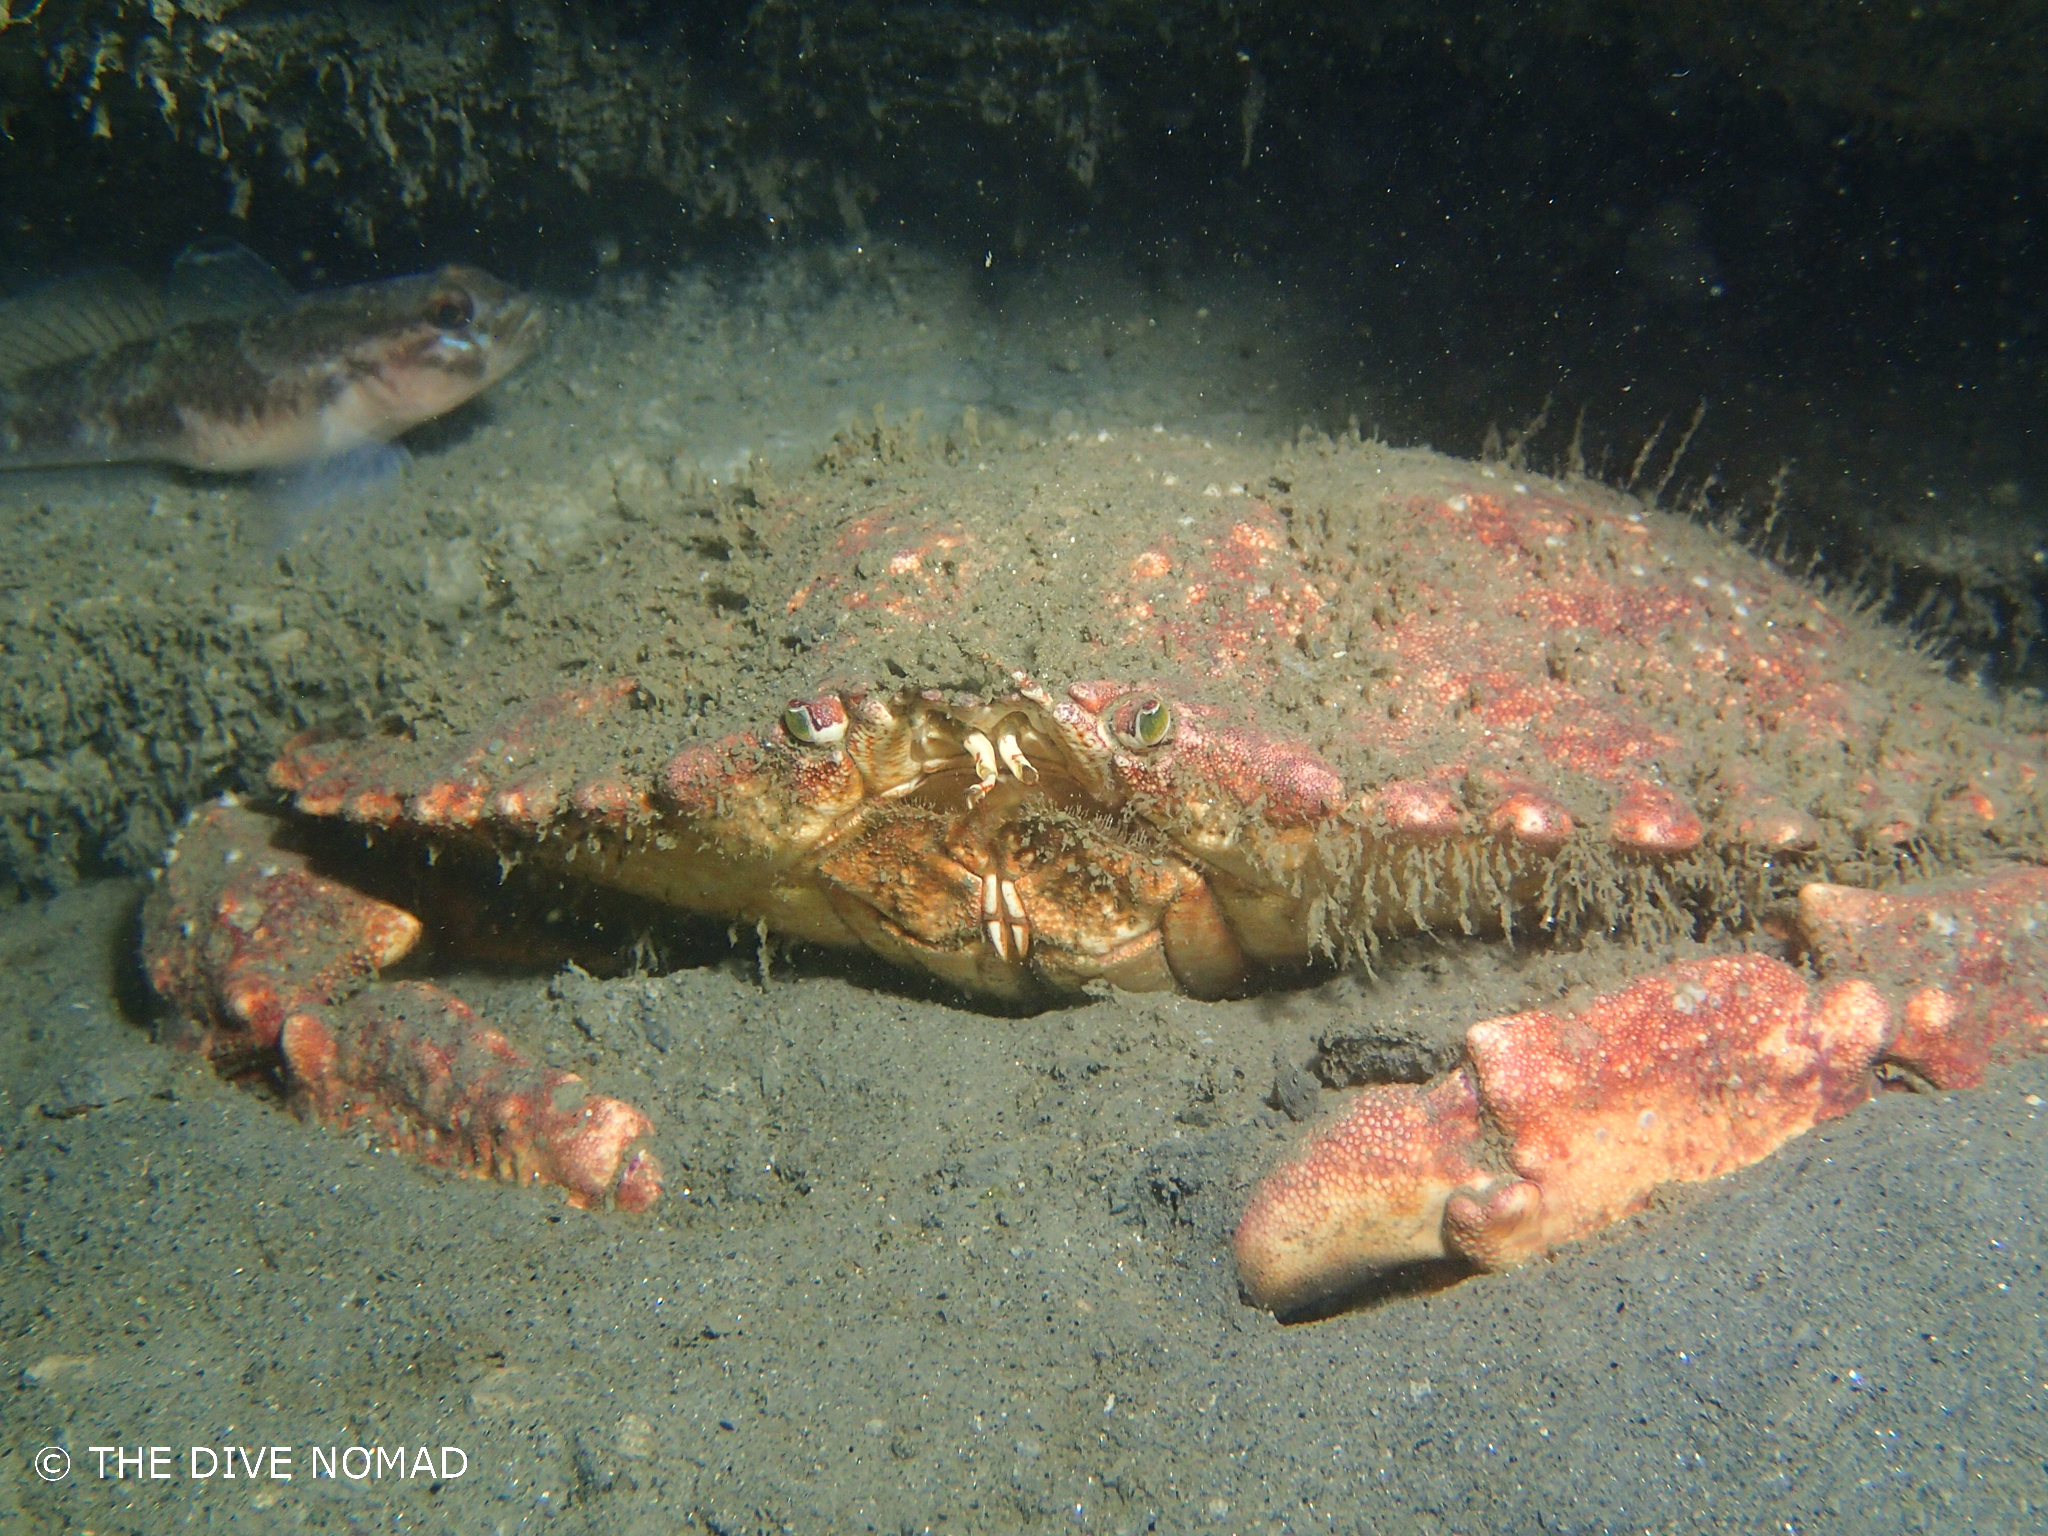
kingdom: Animalia
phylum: Arthropoda
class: Malacostraca
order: Decapoda
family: Cancridae
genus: Cancer
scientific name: Cancer productus
